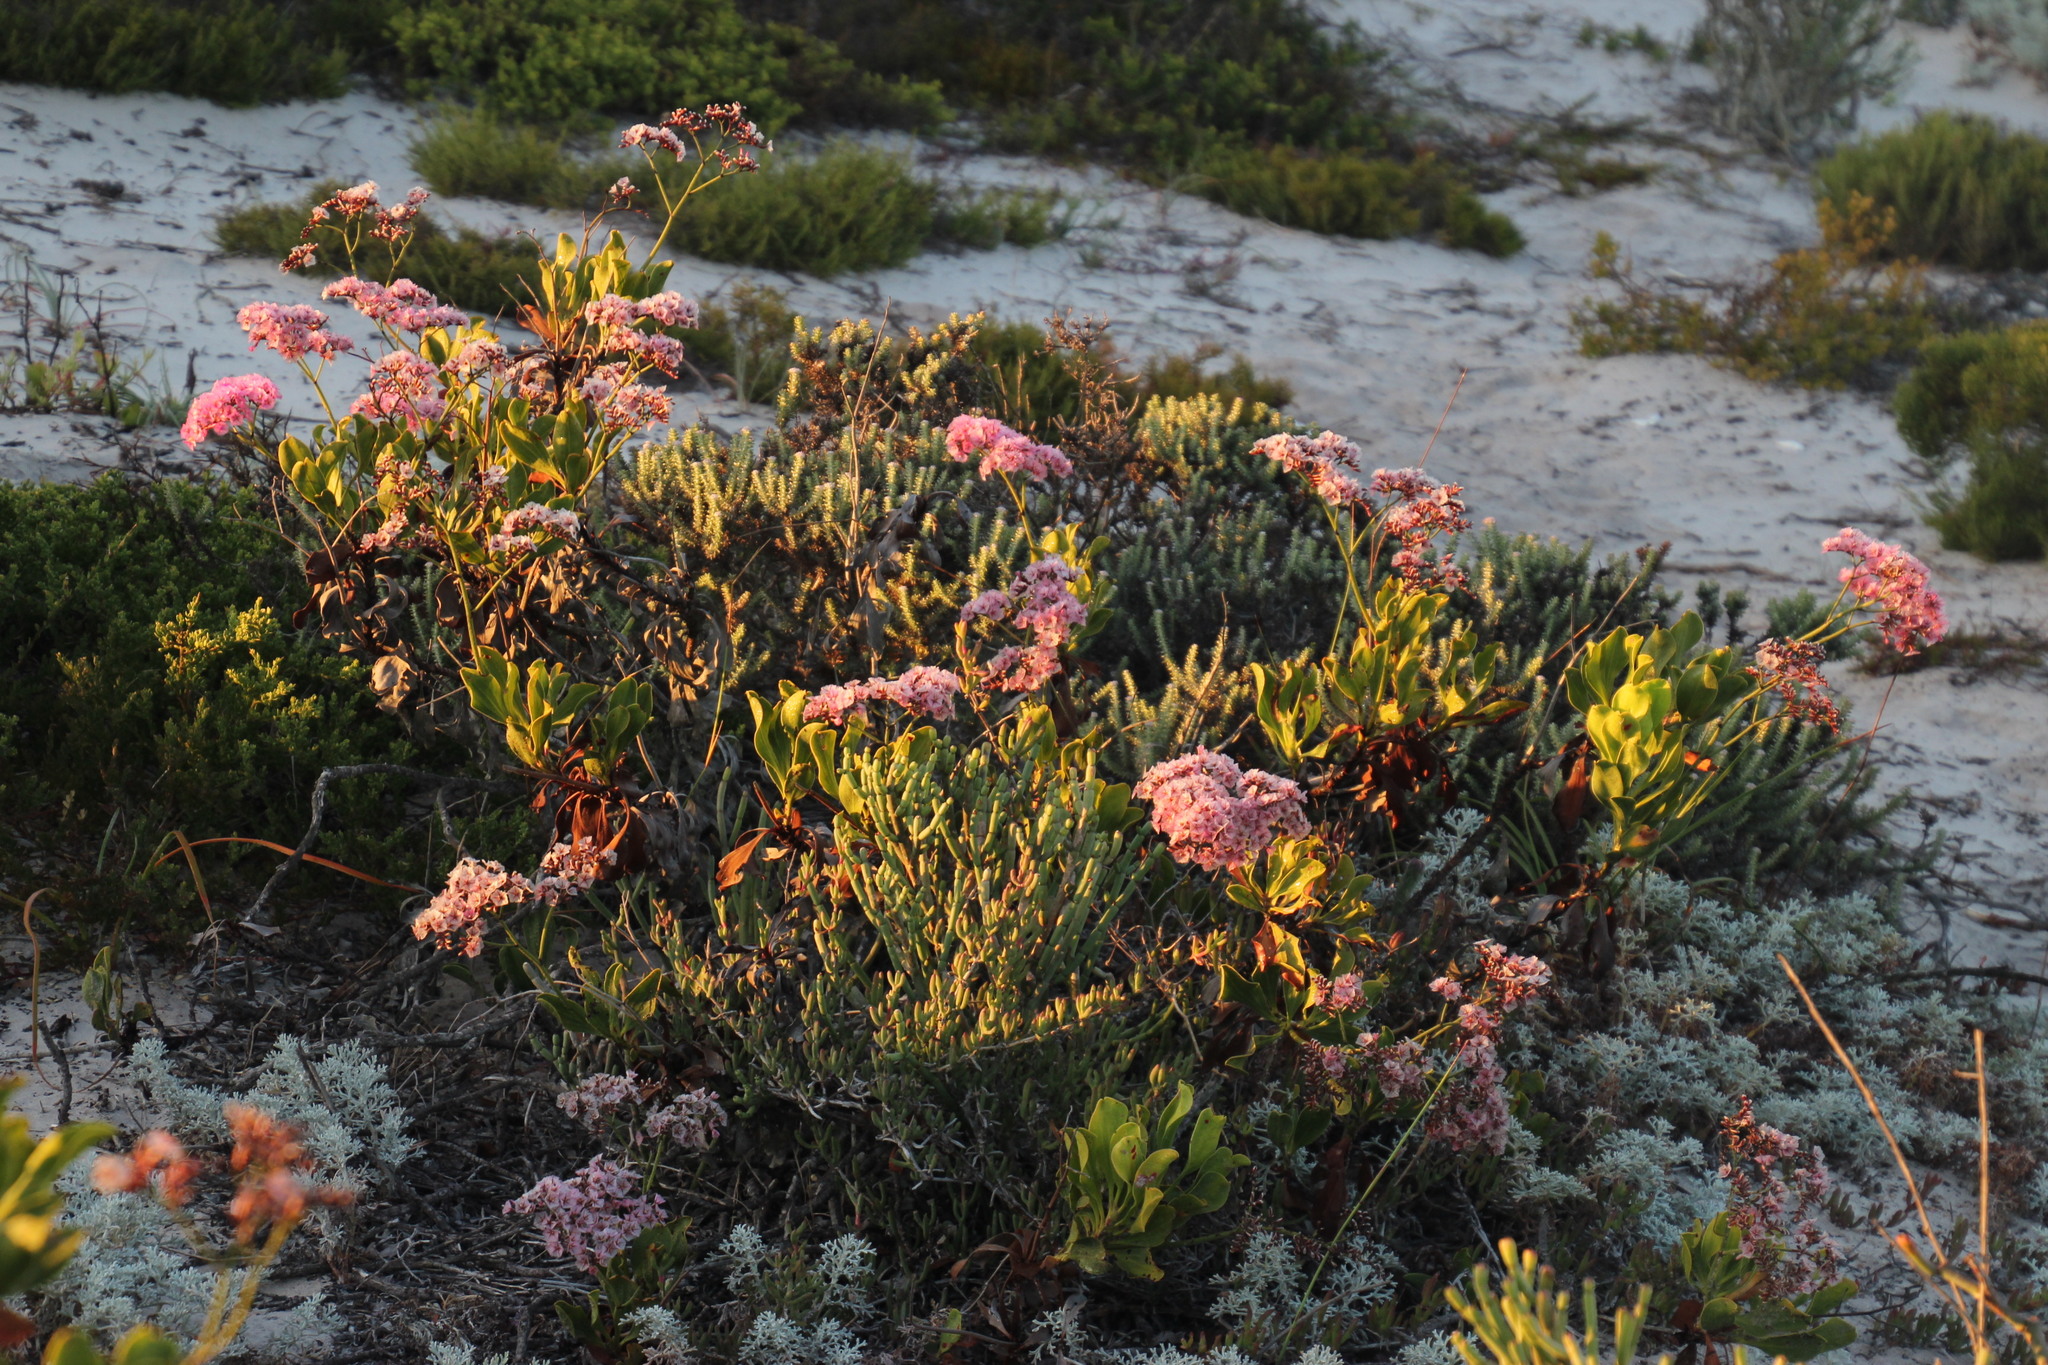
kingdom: Plantae
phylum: Tracheophyta
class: Magnoliopsida
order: Caryophyllales
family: Plumbaginaceae
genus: Limonium
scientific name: Limonium peregrinum
